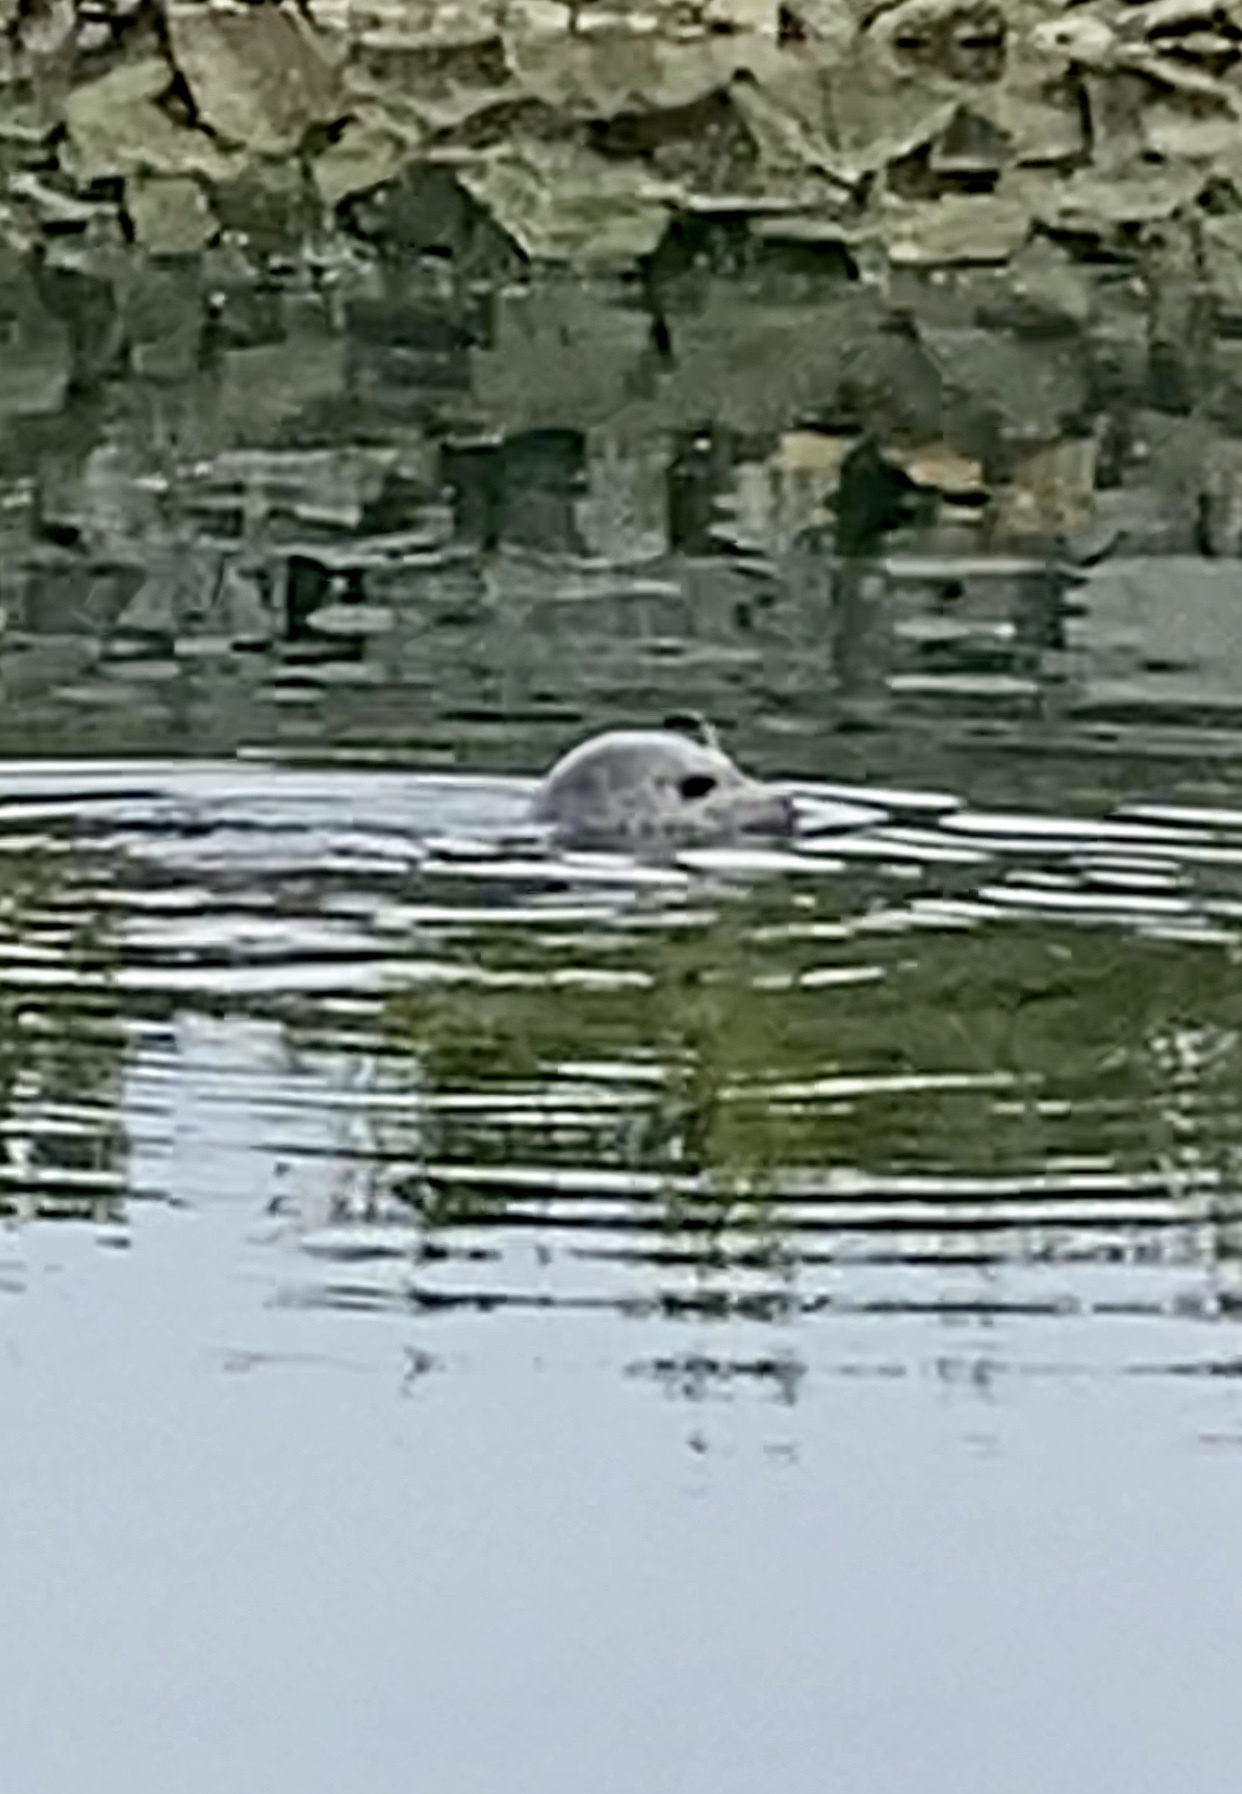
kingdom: Animalia
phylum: Chordata
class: Mammalia
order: Carnivora
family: Phocidae
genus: Phoca
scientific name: Phoca vitulina
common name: Harbor seal
